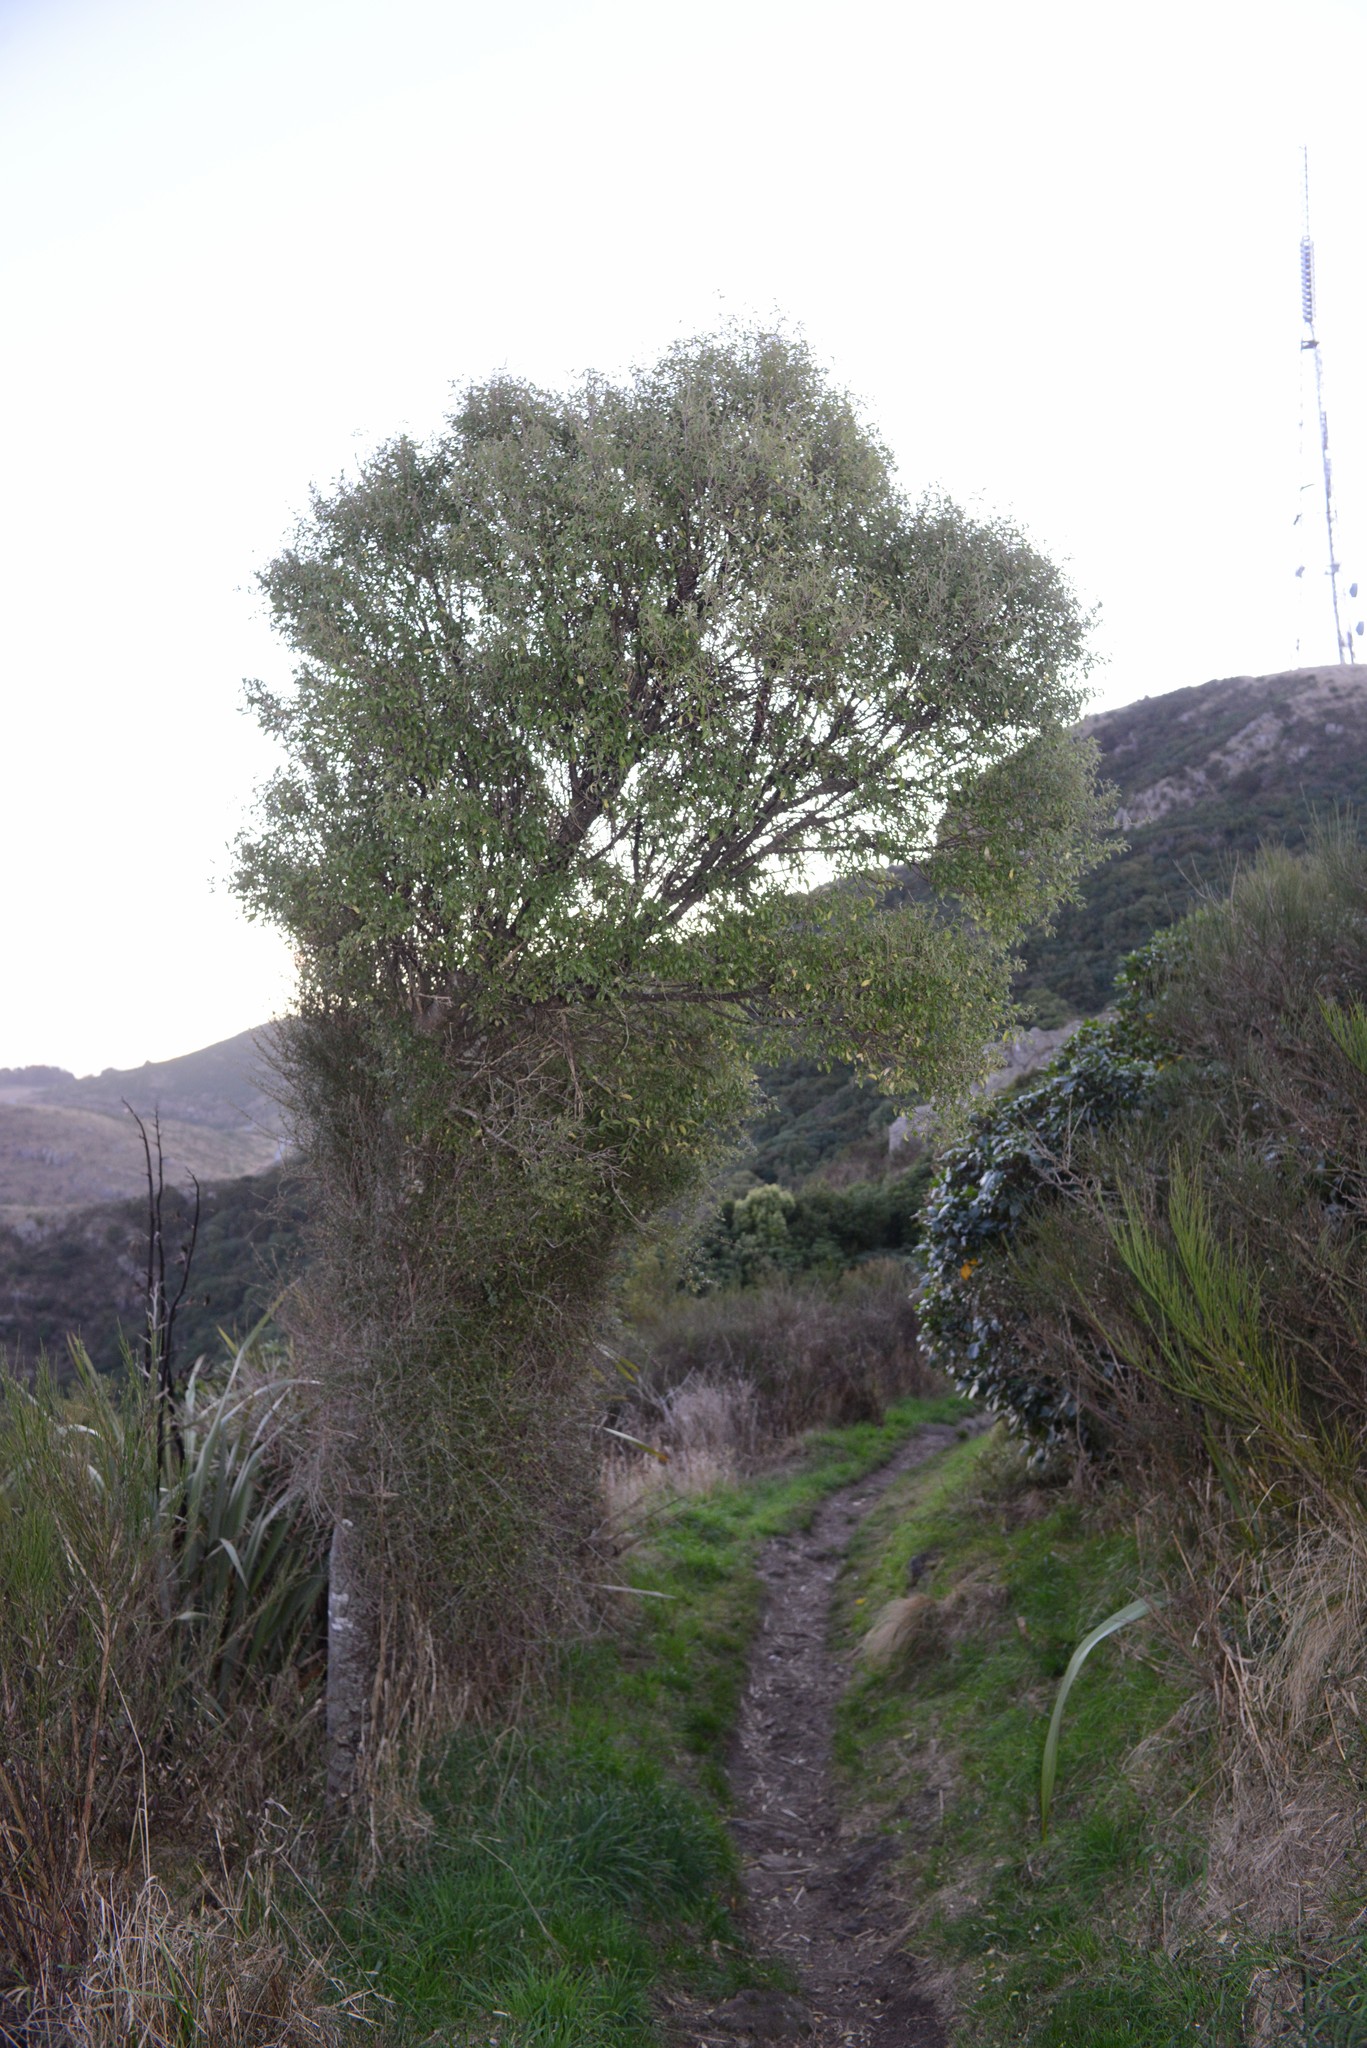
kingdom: Plantae
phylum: Tracheophyta
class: Magnoliopsida
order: Malvales
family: Malvaceae
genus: Hoheria
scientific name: Hoheria angustifolia
